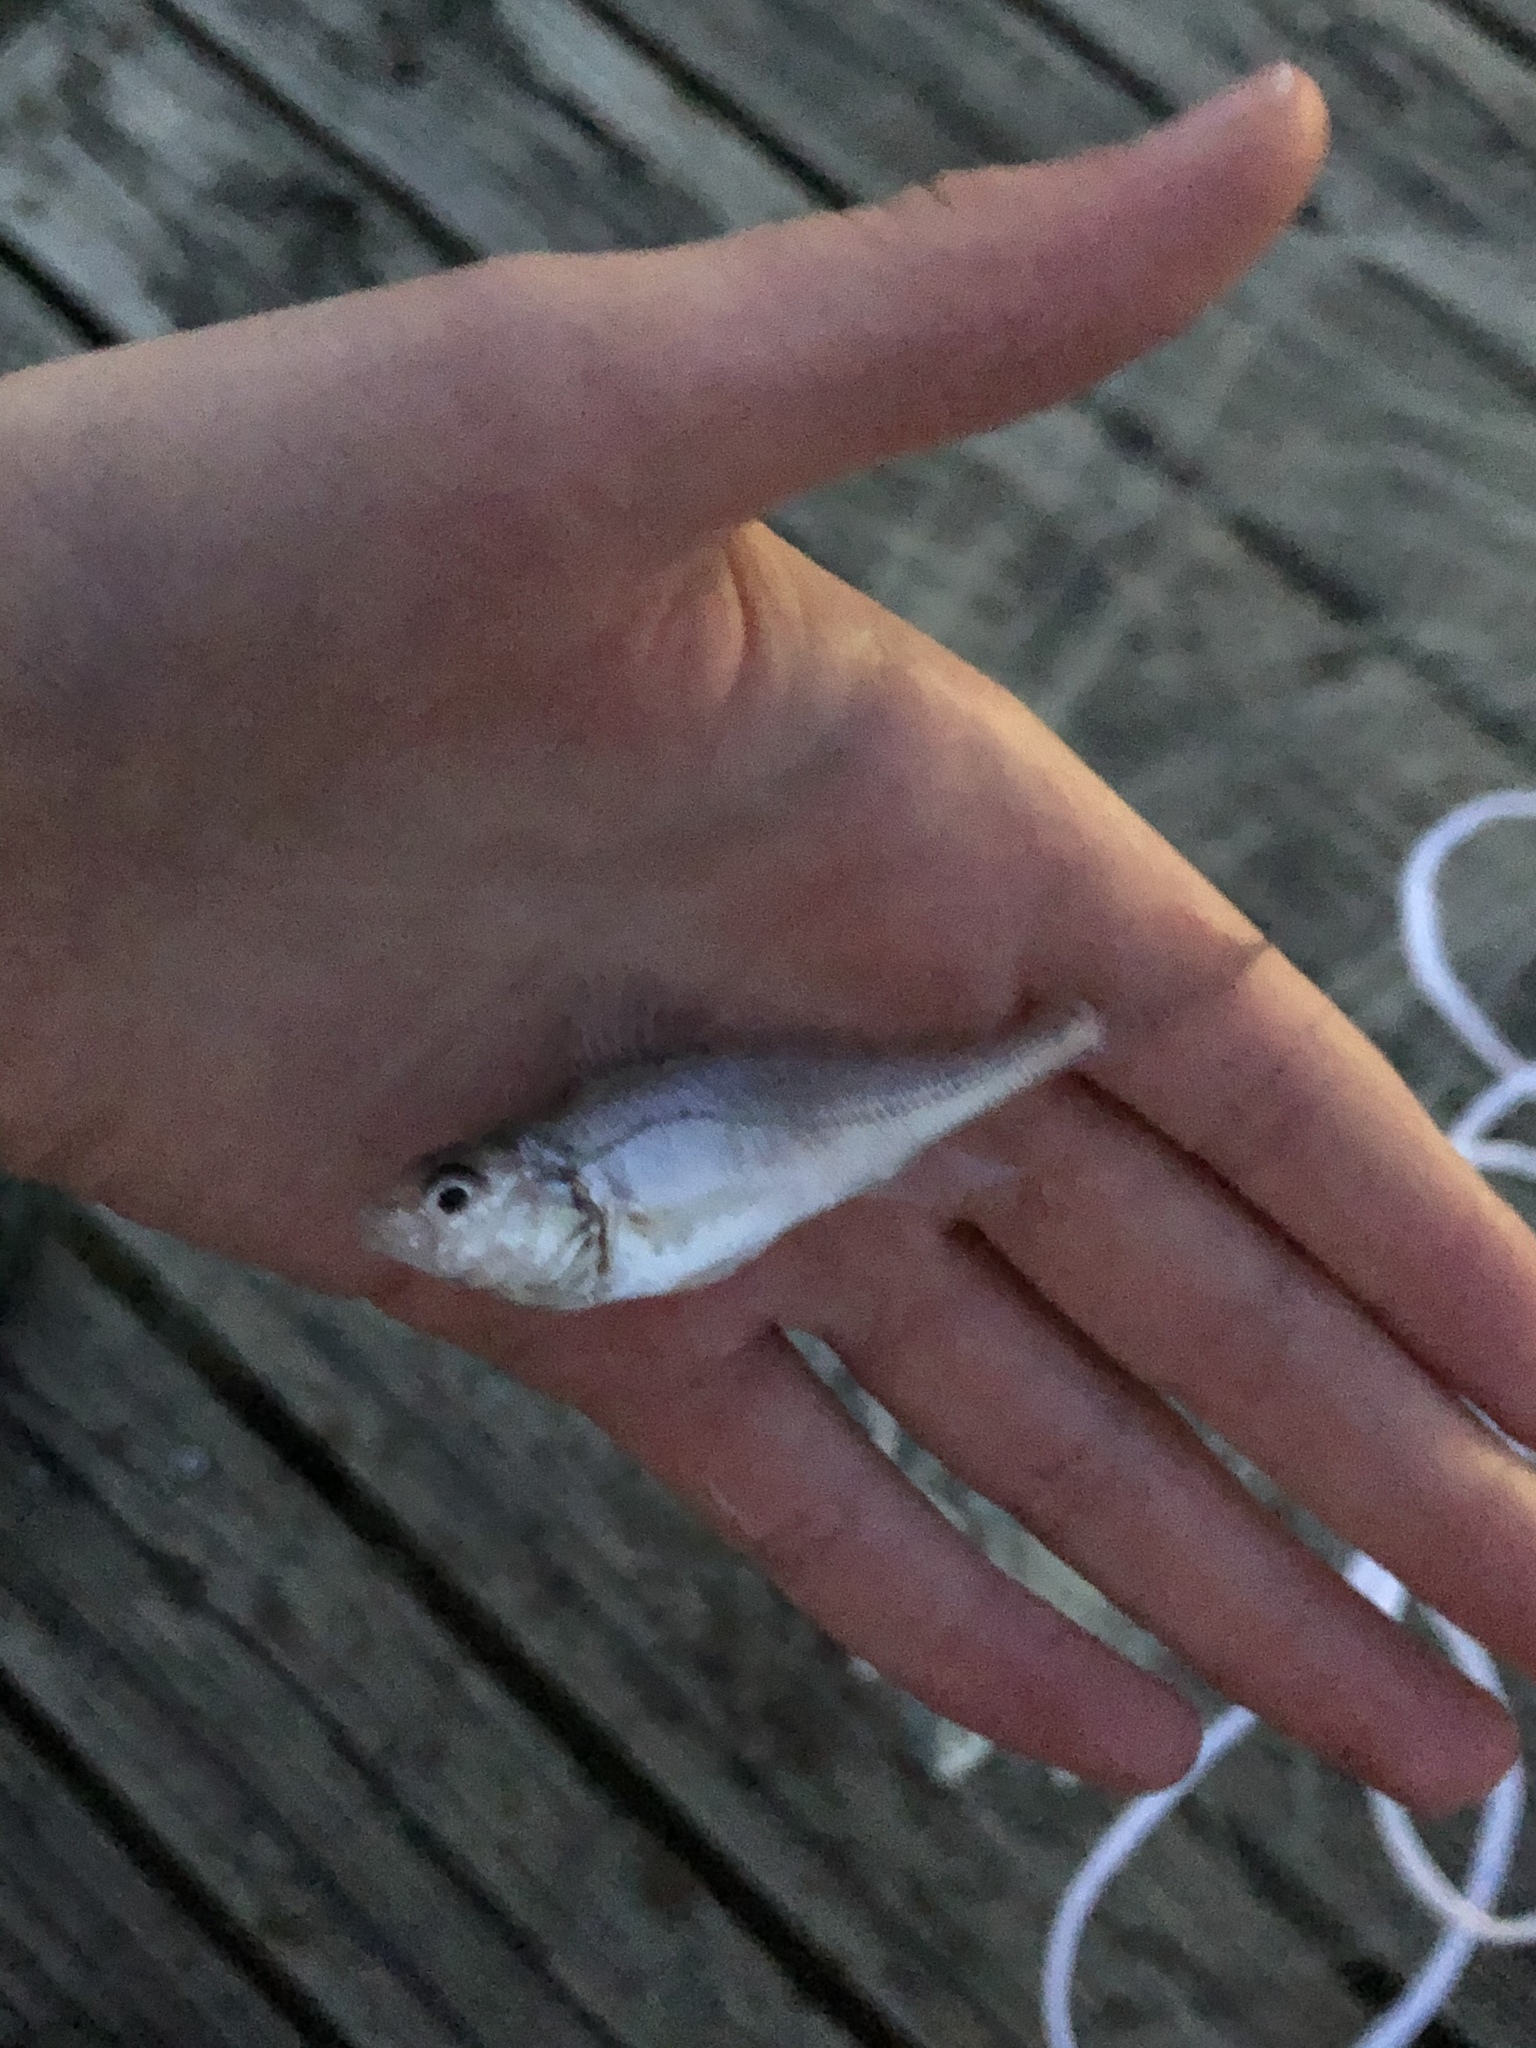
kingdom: Animalia
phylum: Chordata
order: Perciformes
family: Sciaenidae
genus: Micropogonias
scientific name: Micropogonias undulatus
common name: Atlantic croaker
